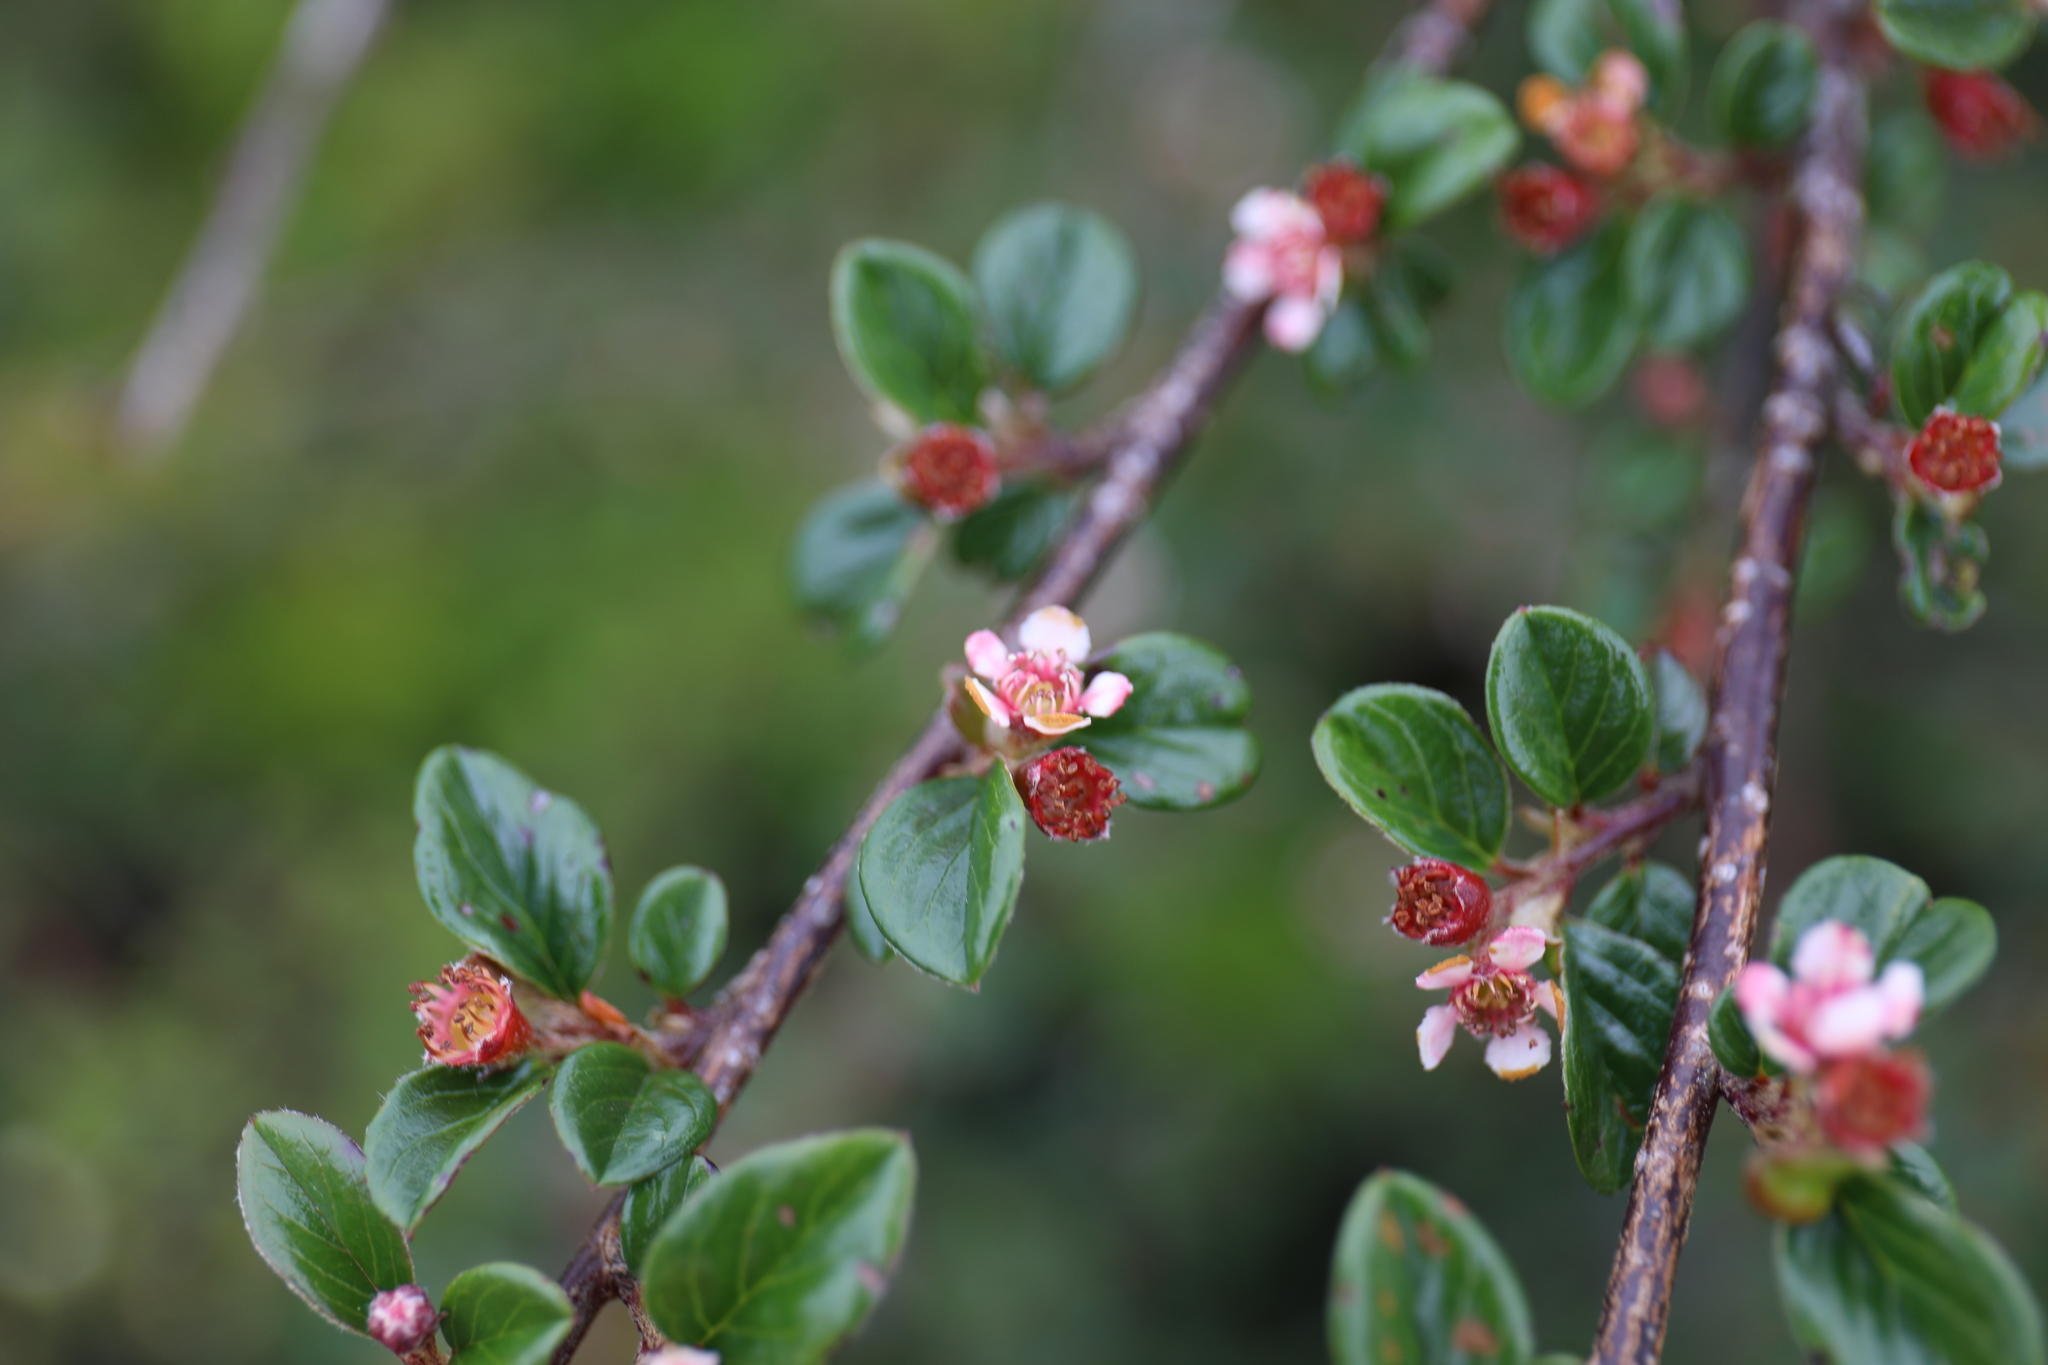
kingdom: Plantae
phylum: Tracheophyta
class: Magnoliopsida
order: Rosales
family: Rosaceae
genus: Cotoneaster
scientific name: Cotoneaster rosiflorus
